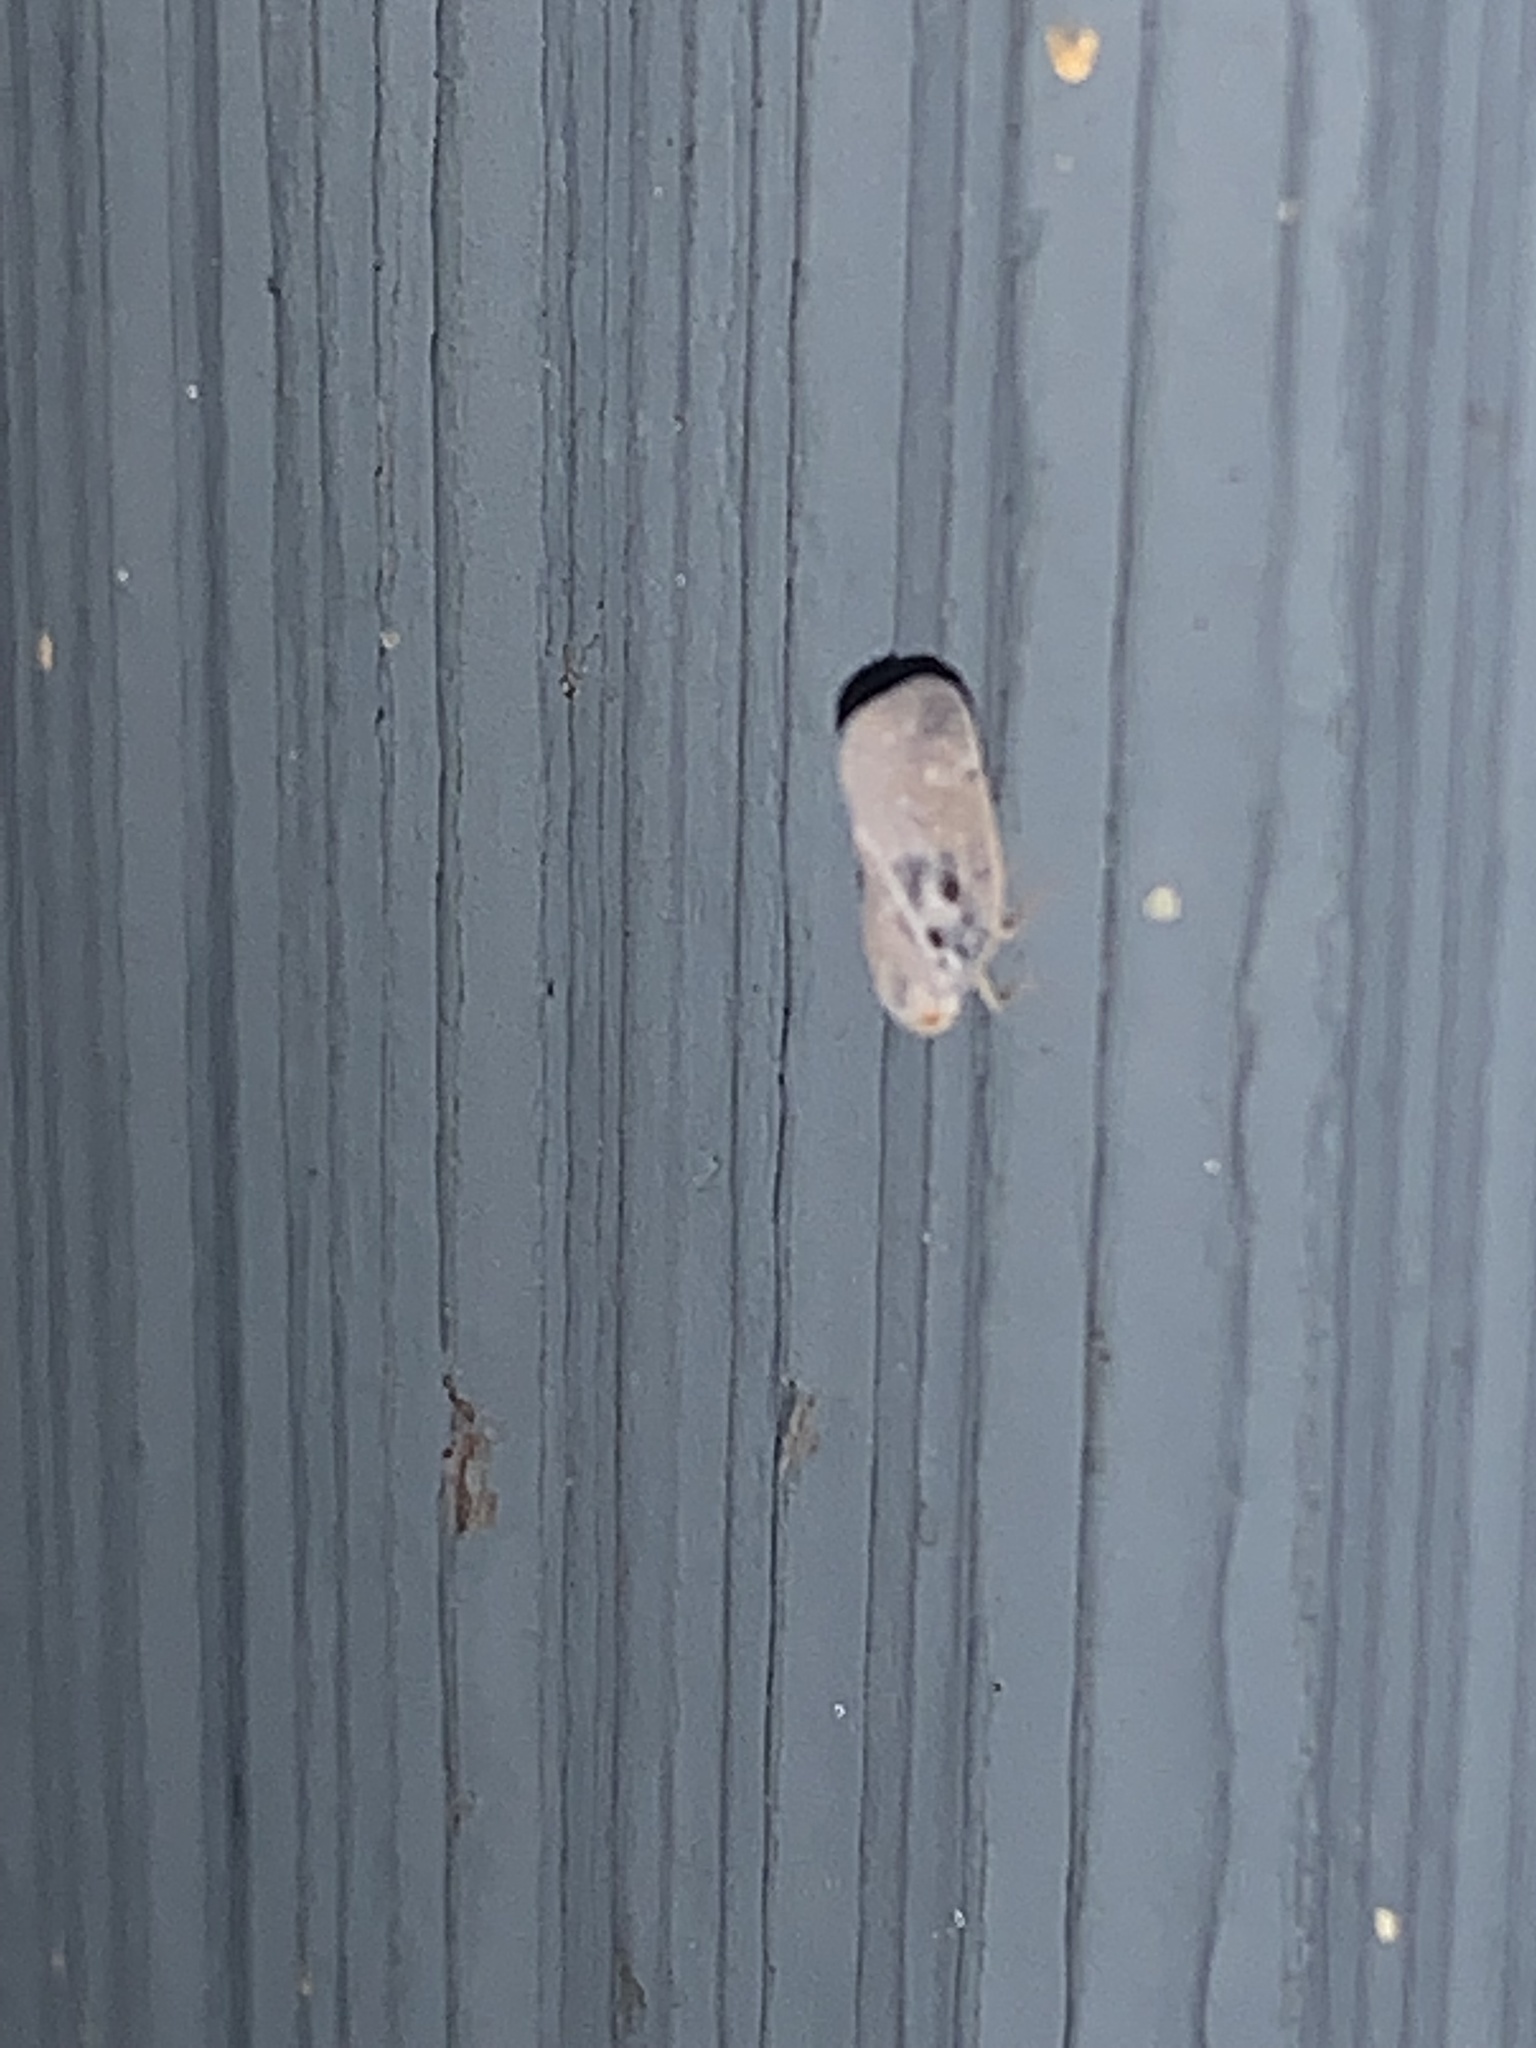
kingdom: Animalia
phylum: Arthropoda
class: Insecta
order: Hemiptera
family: Flatidae
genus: Metcalfa
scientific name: Metcalfa pruinosa
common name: Citrus flatid planthopper
